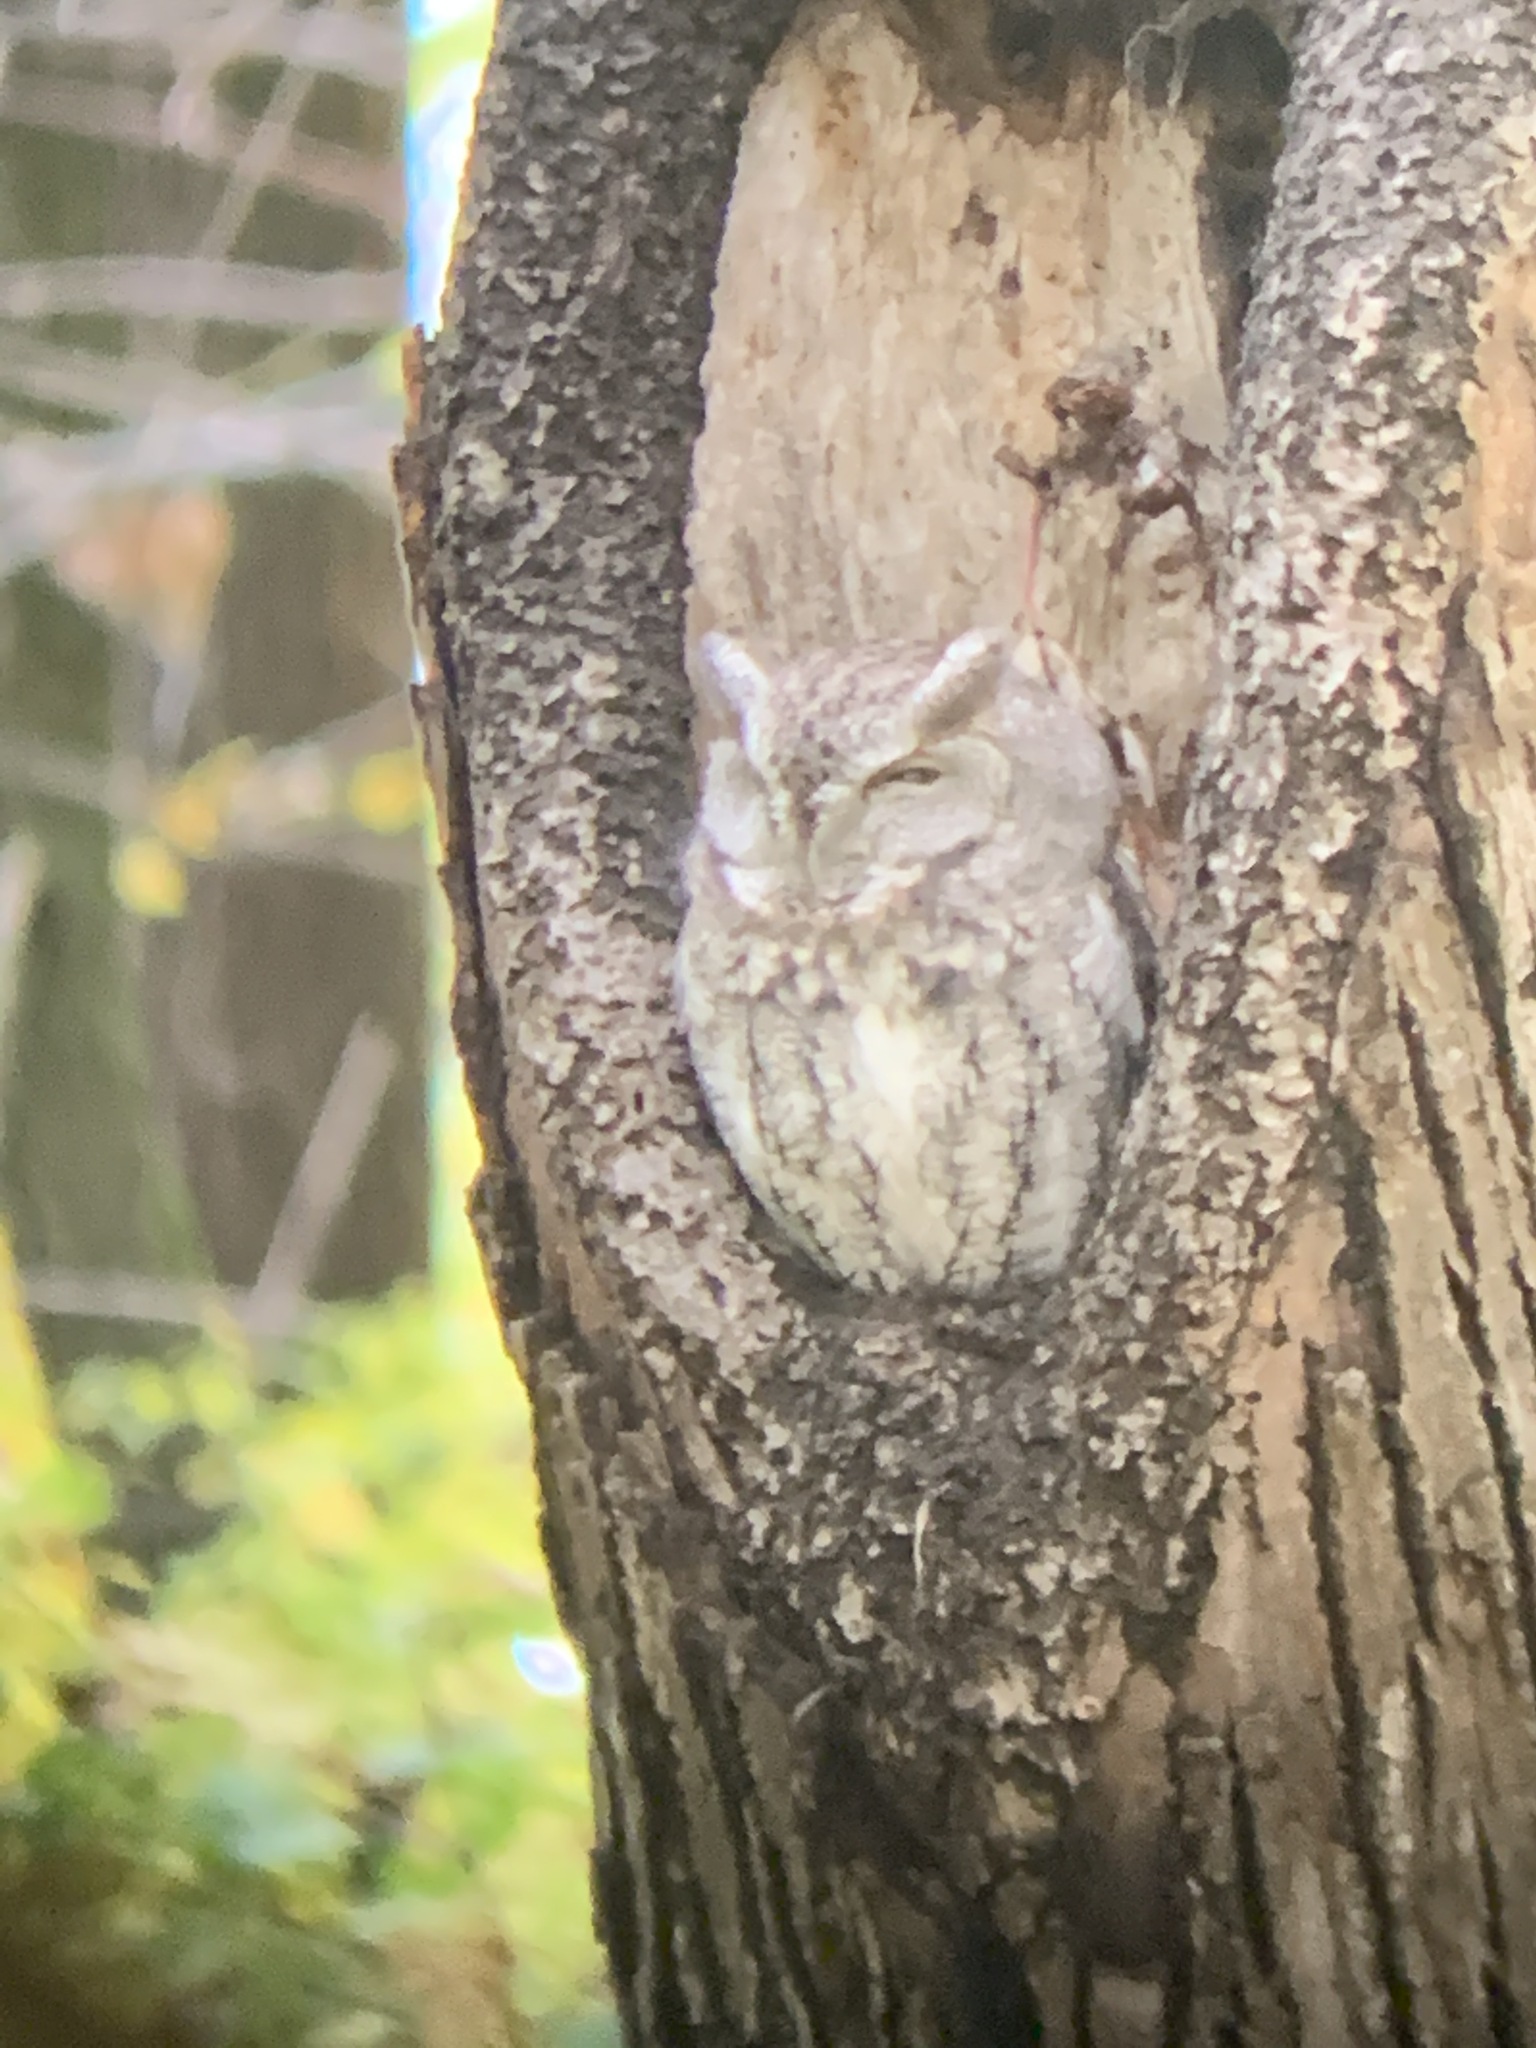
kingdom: Animalia
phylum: Chordata
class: Aves
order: Strigiformes
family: Strigidae
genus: Megascops
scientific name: Megascops asio
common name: Eastern screech-owl
